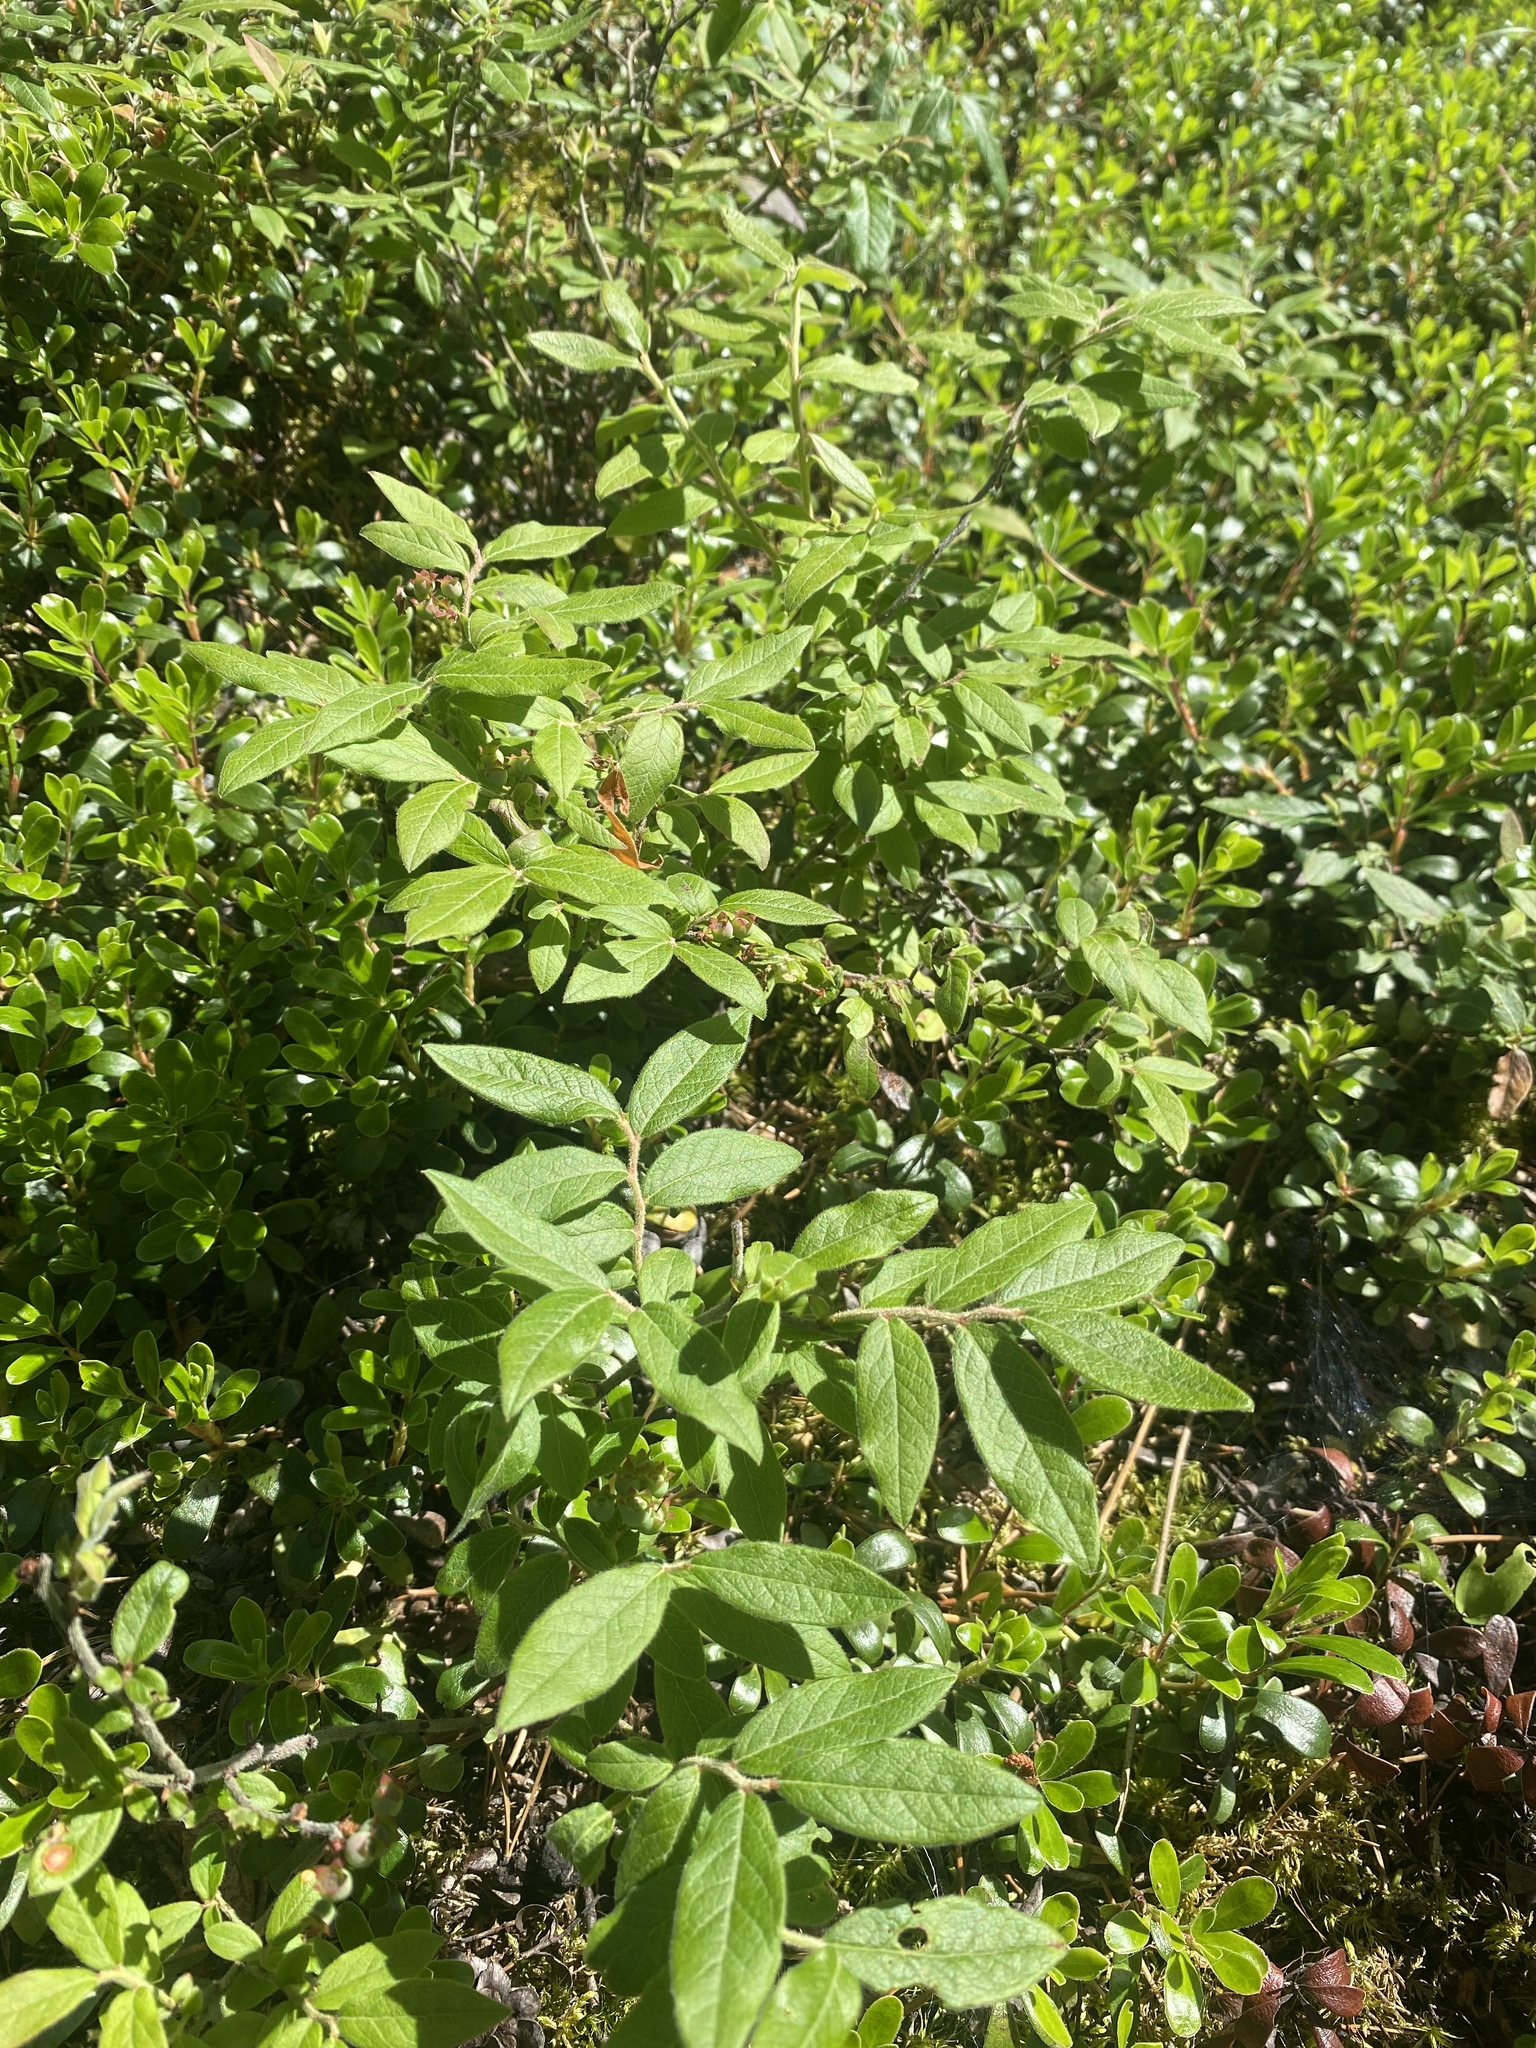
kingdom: Plantae
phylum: Tracheophyta
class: Magnoliopsida
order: Ericales
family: Ericaceae
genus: Vaccinium
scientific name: Vaccinium myrtilloides
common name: Canada blueberry
